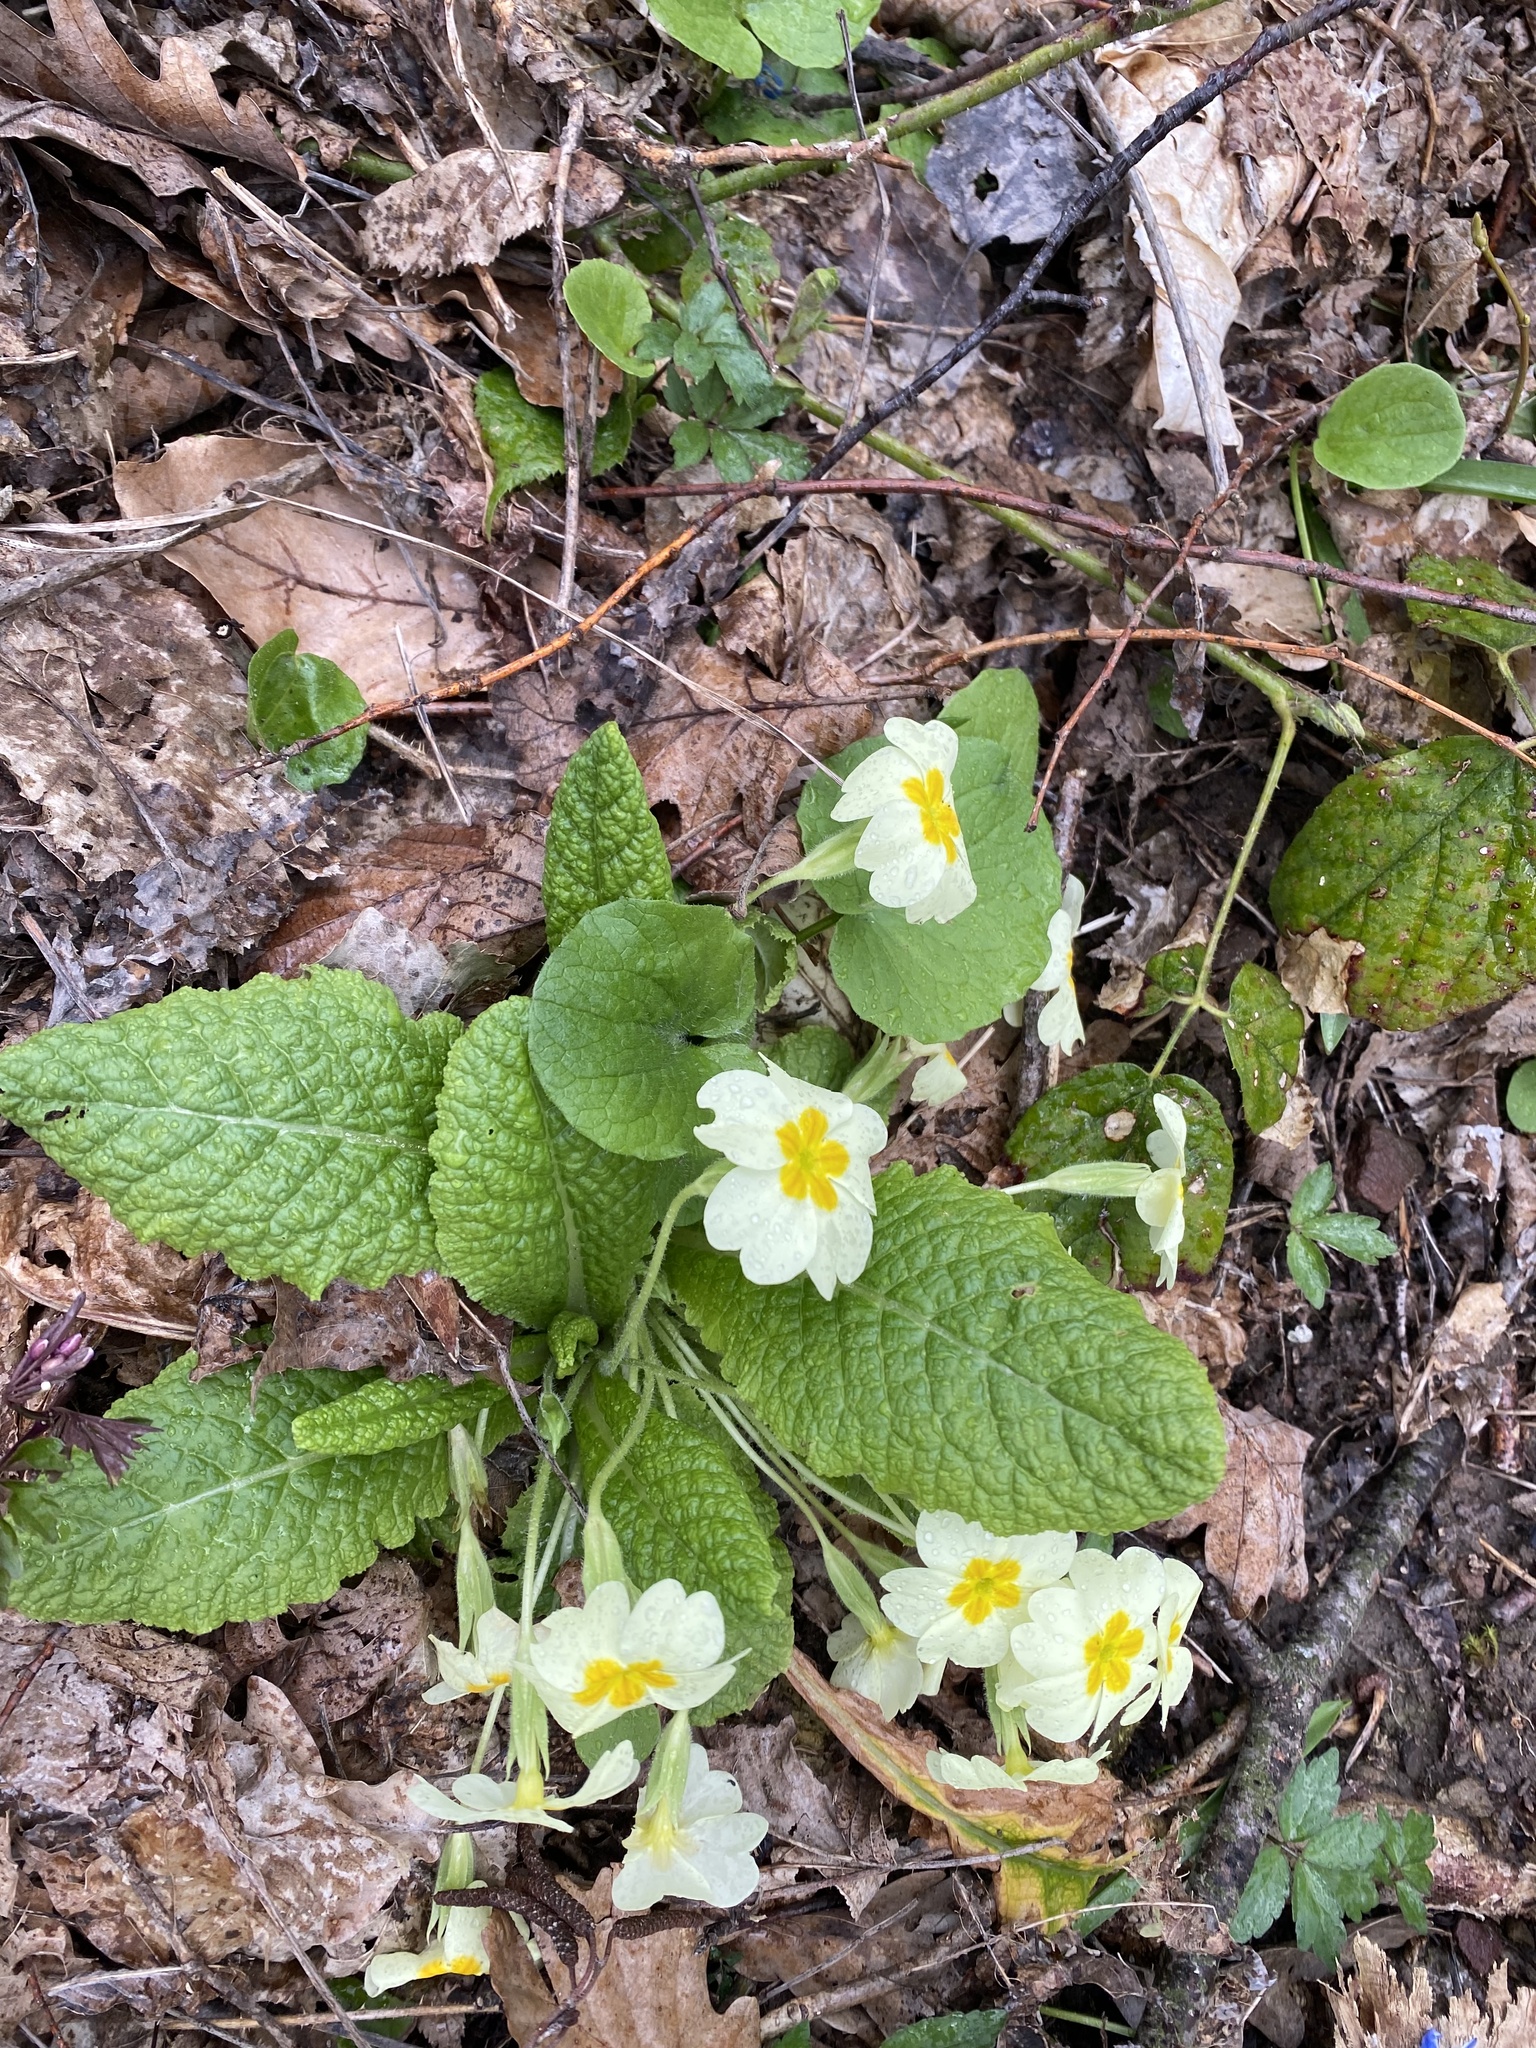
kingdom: Plantae
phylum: Tracheophyta
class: Magnoliopsida
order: Ericales
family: Primulaceae
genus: Primula
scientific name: Primula vulgaris
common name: Primrose
